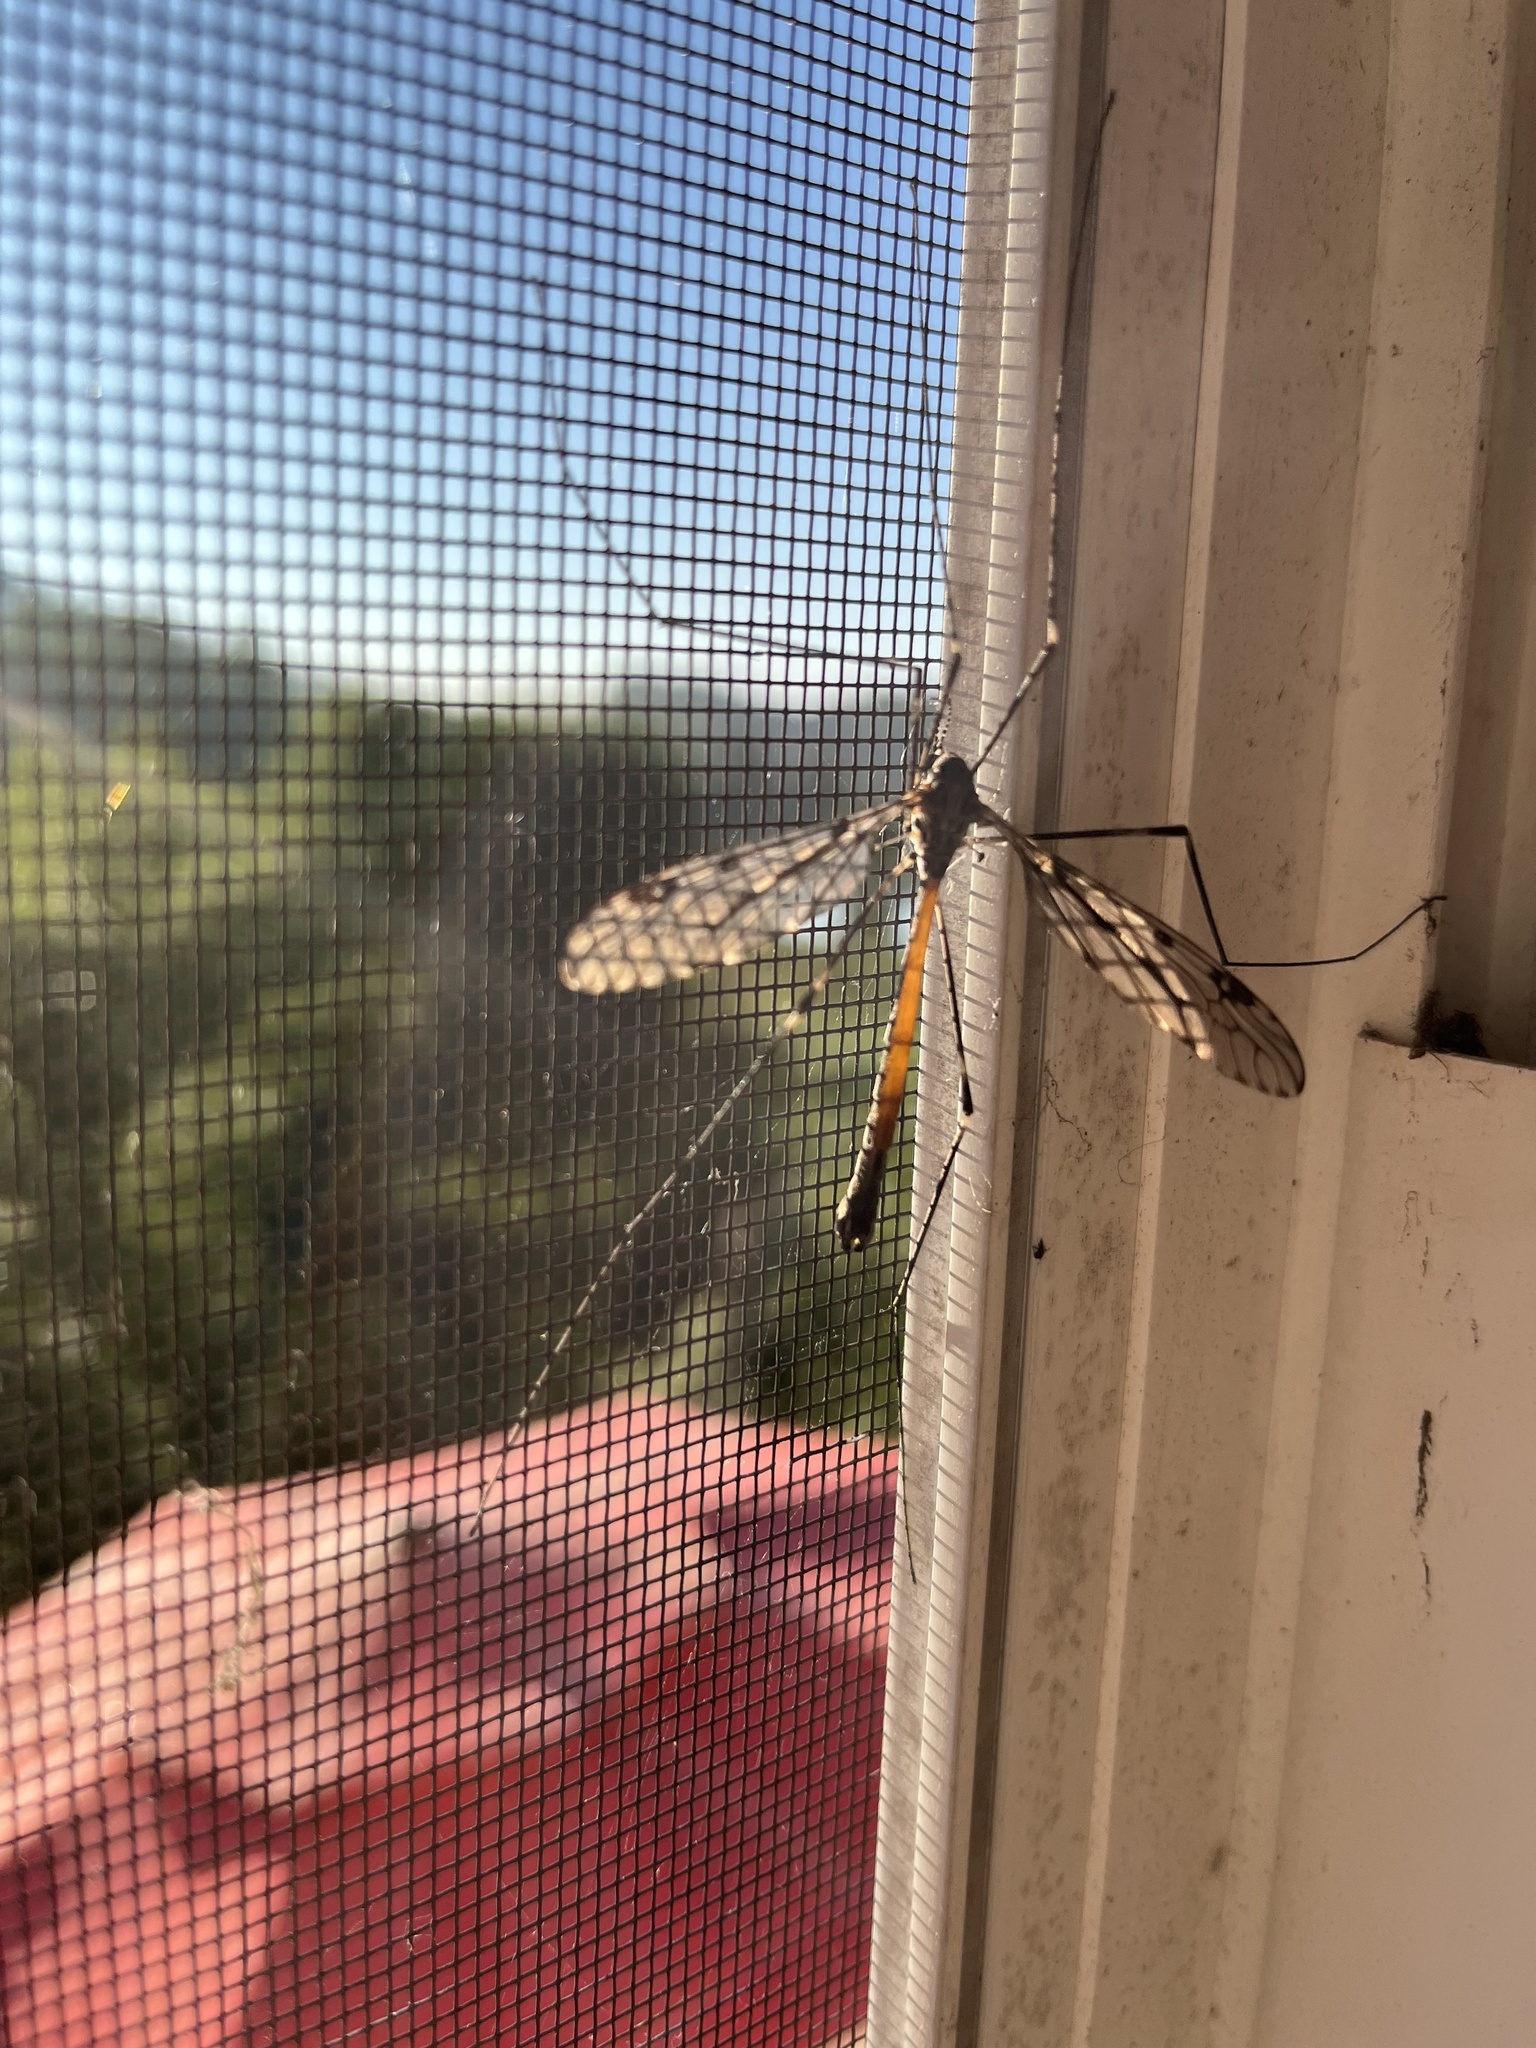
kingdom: Animalia
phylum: Arthropoda
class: Insecta
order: Diptera
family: Tipulidae
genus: Tipula
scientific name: Tipula abdominalis
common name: Giant crane fly
